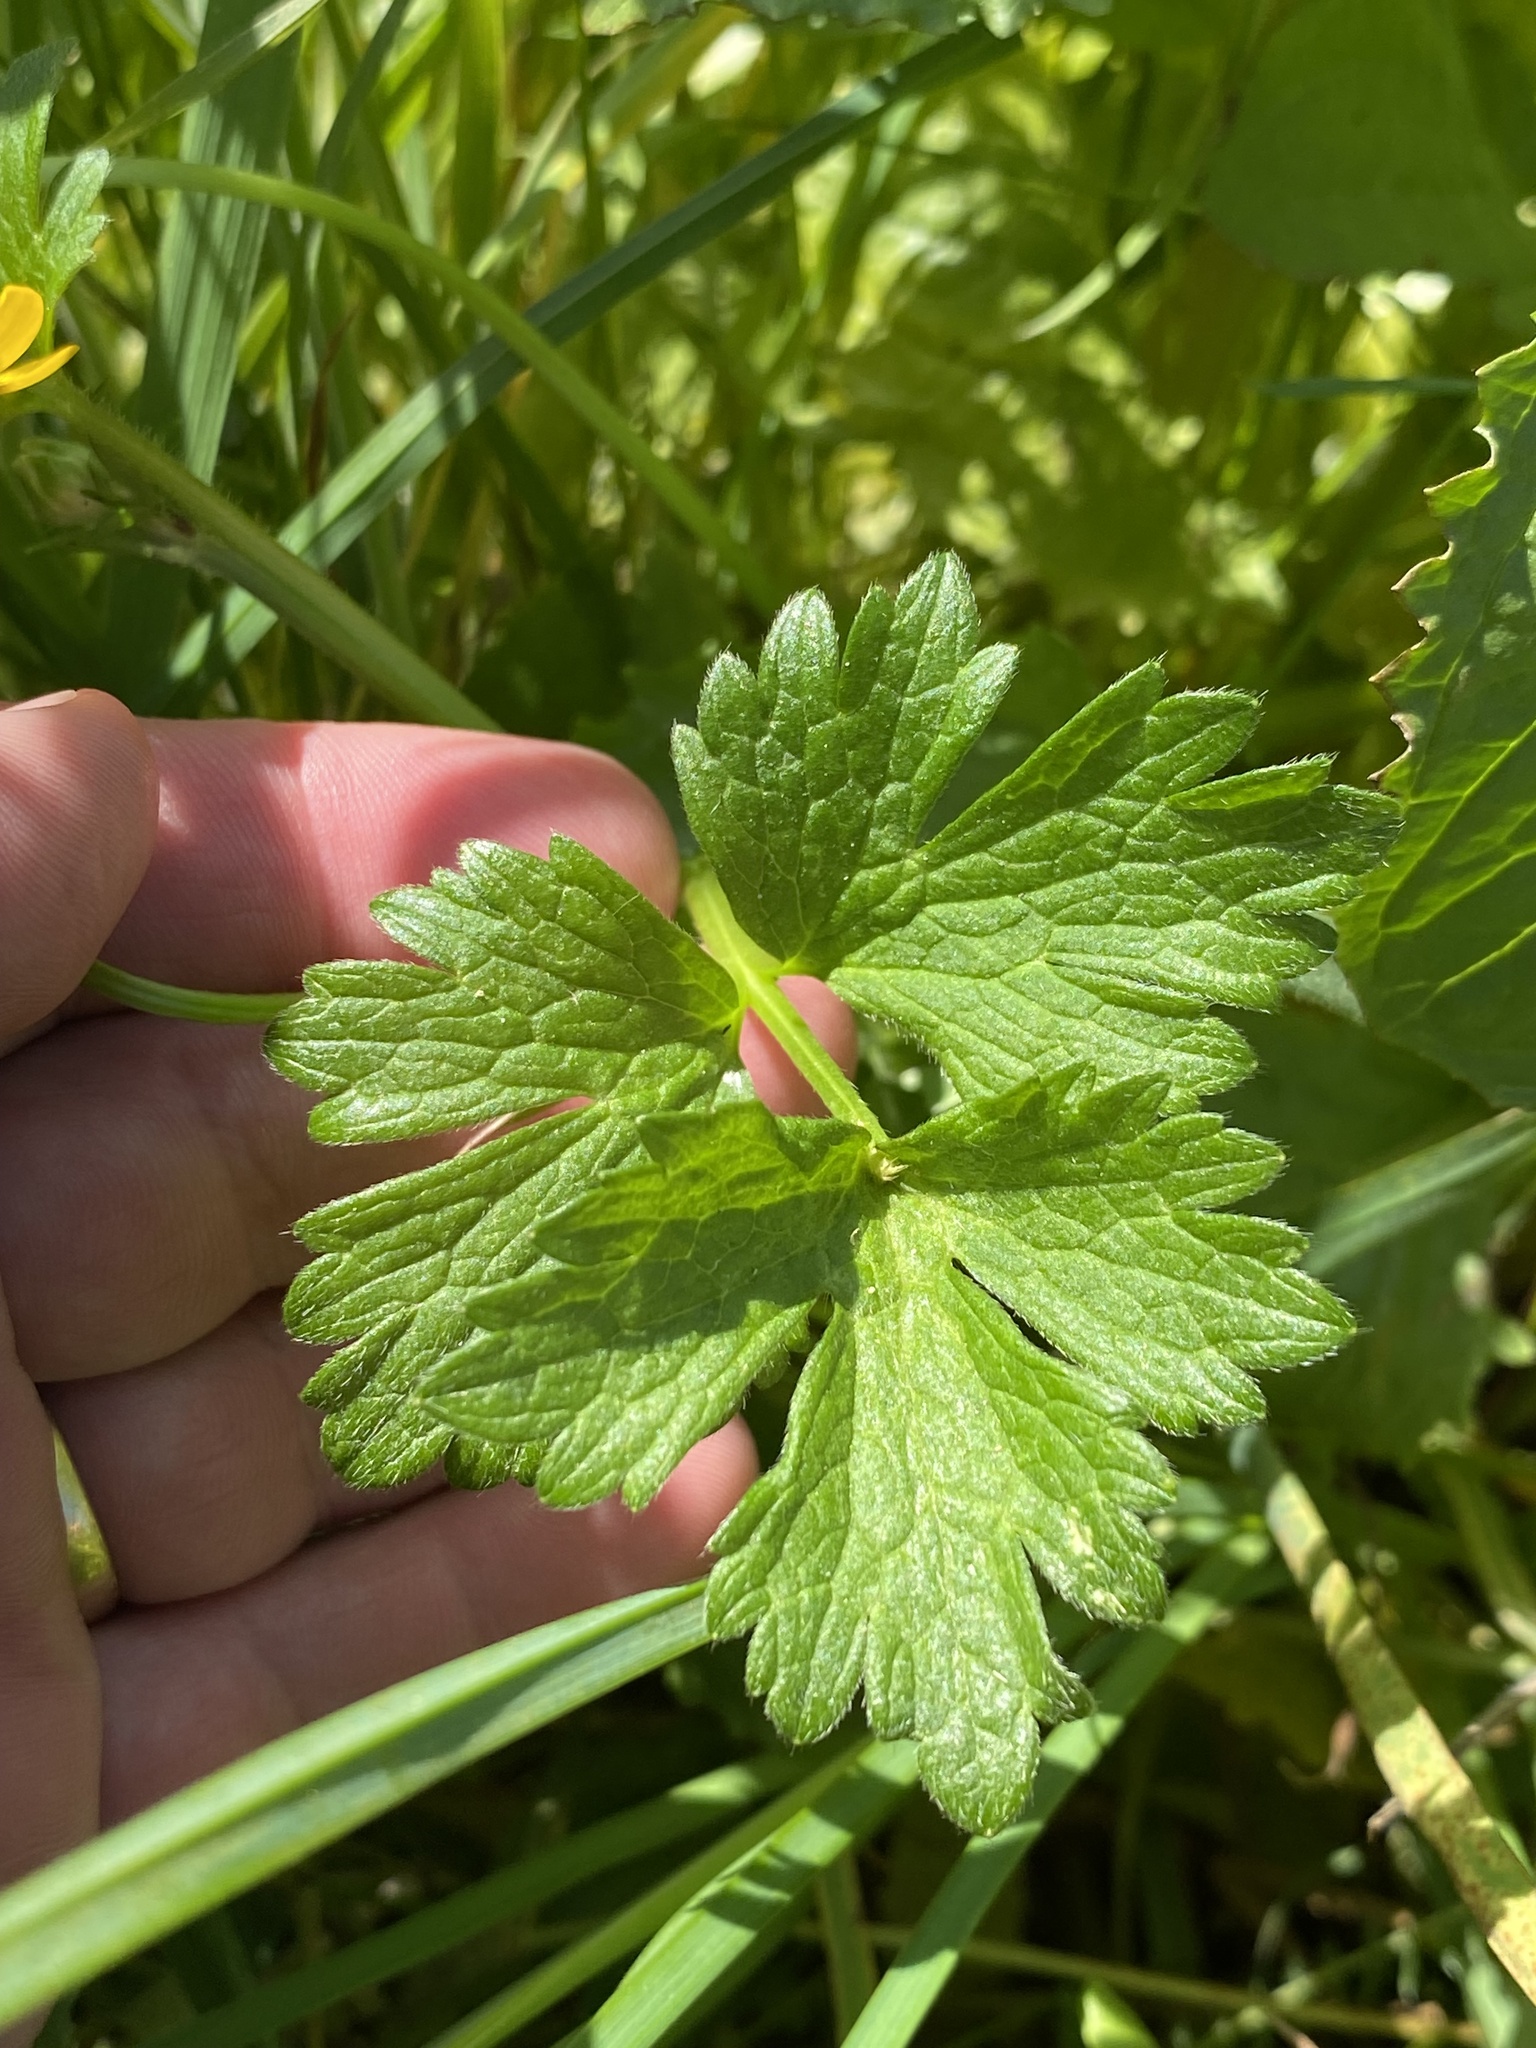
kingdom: Plantae
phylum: Tracheophyta
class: Magnoliopsida
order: Ranunculales
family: Ranunculaceae
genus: Ranunculus
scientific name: Ranunculus repens
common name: Creeping buttercup
